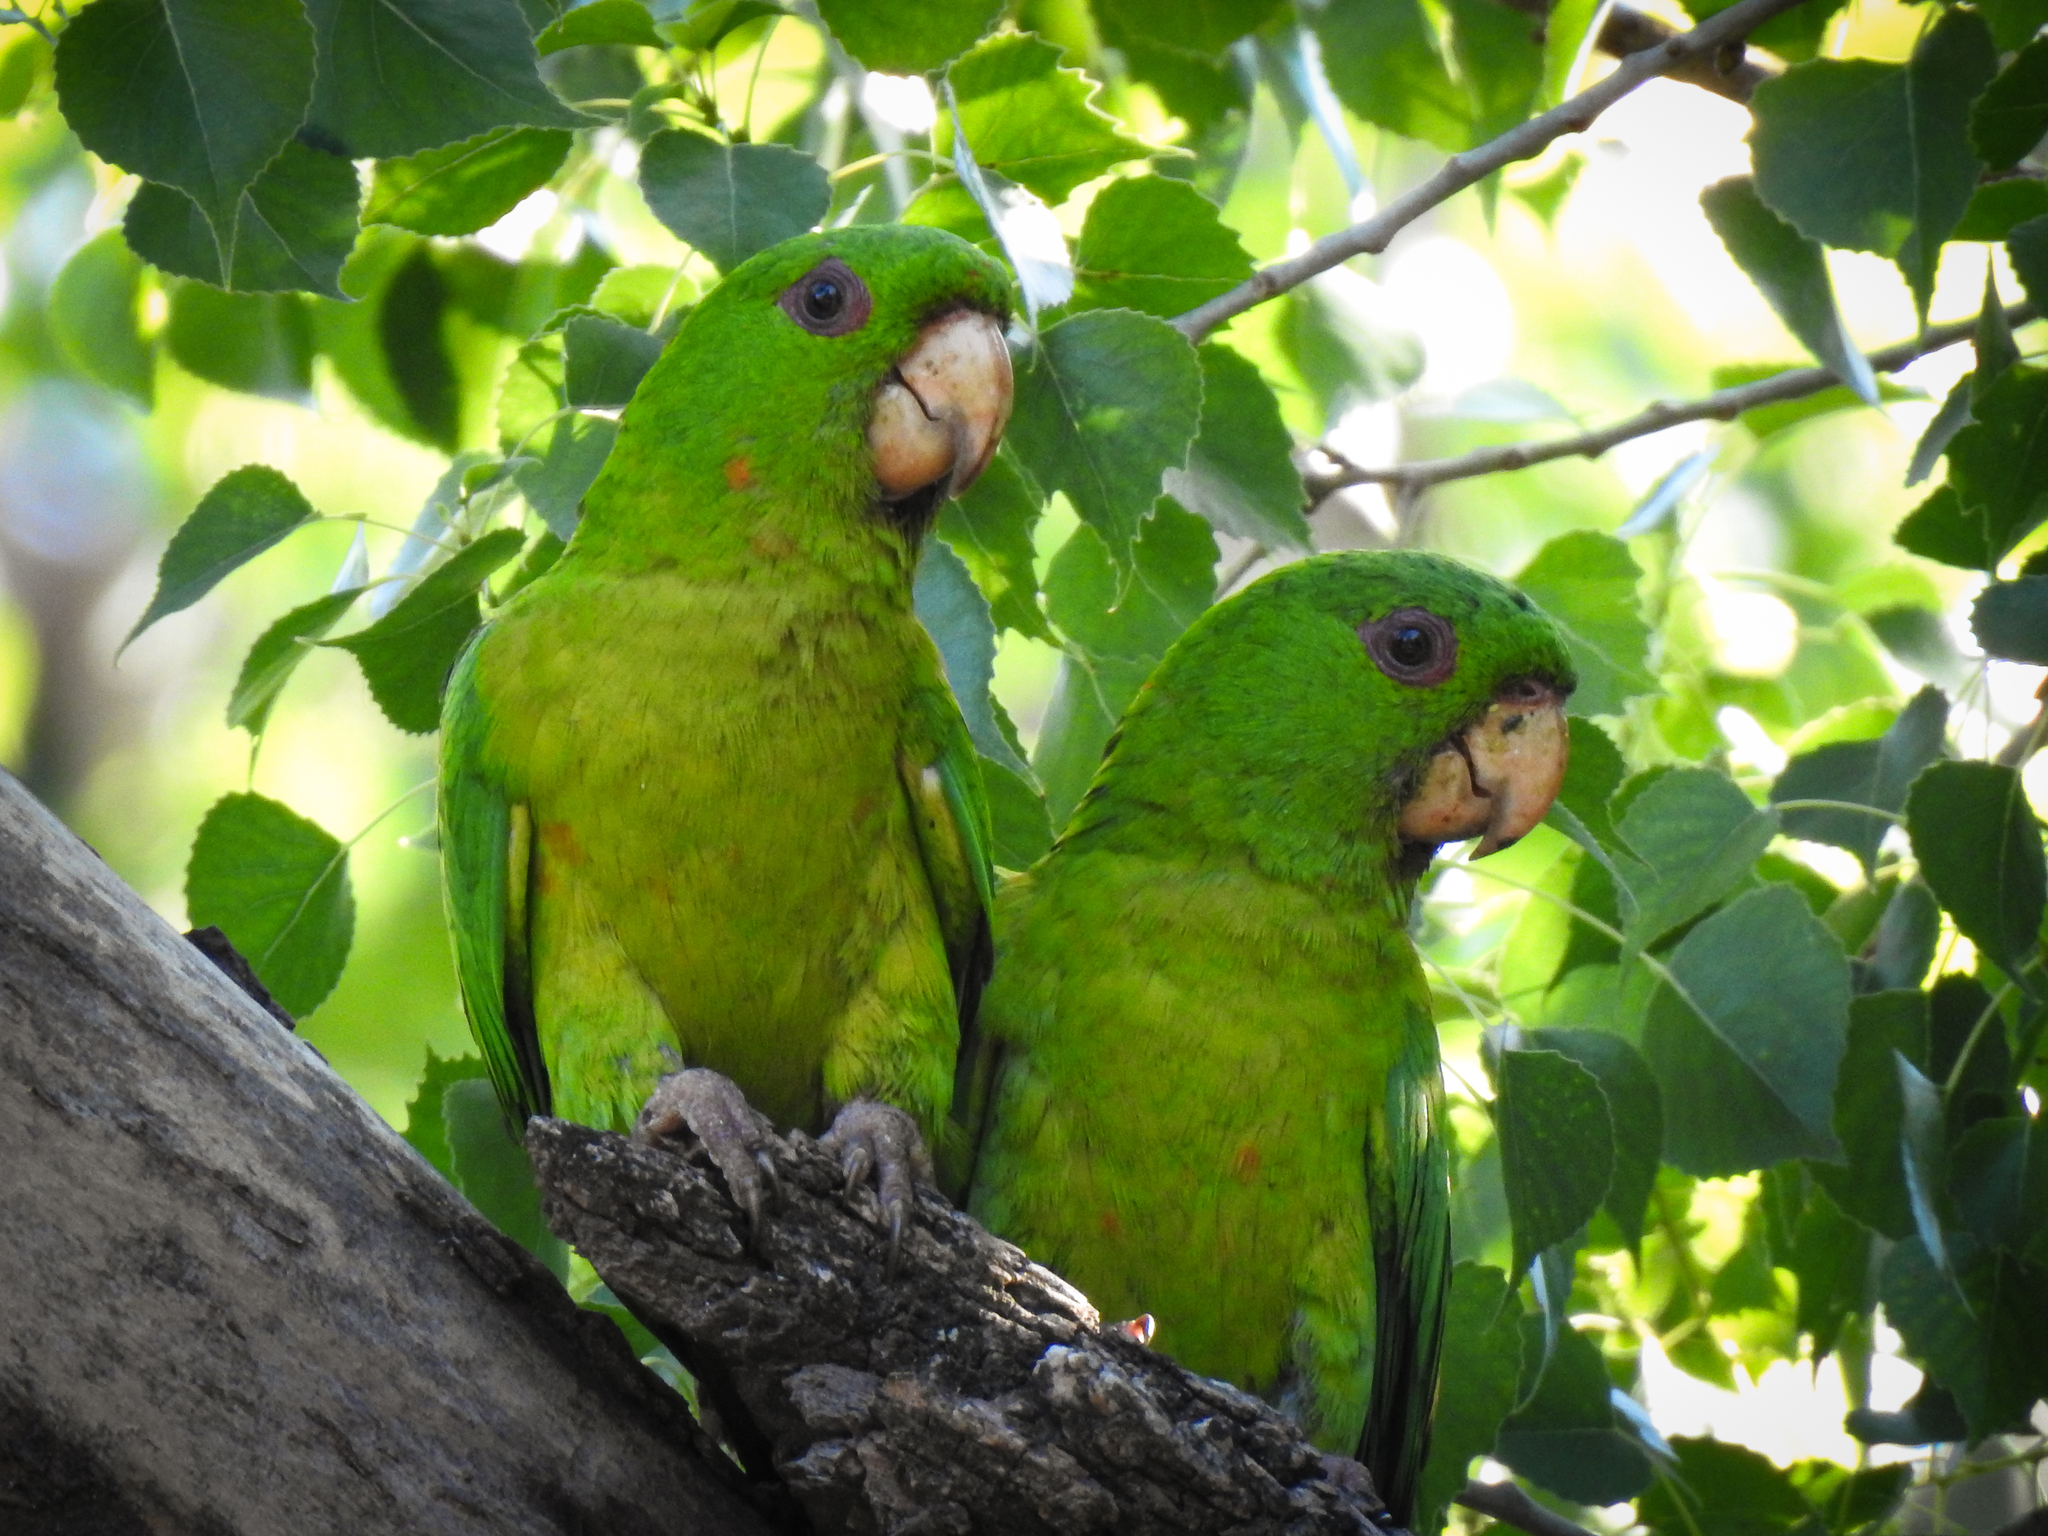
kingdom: Animalia
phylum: Chordata
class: Aves
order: Psittaciformes
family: Psittacidae
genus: Aratinga
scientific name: Aratinga holochlora
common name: Green parakeet
